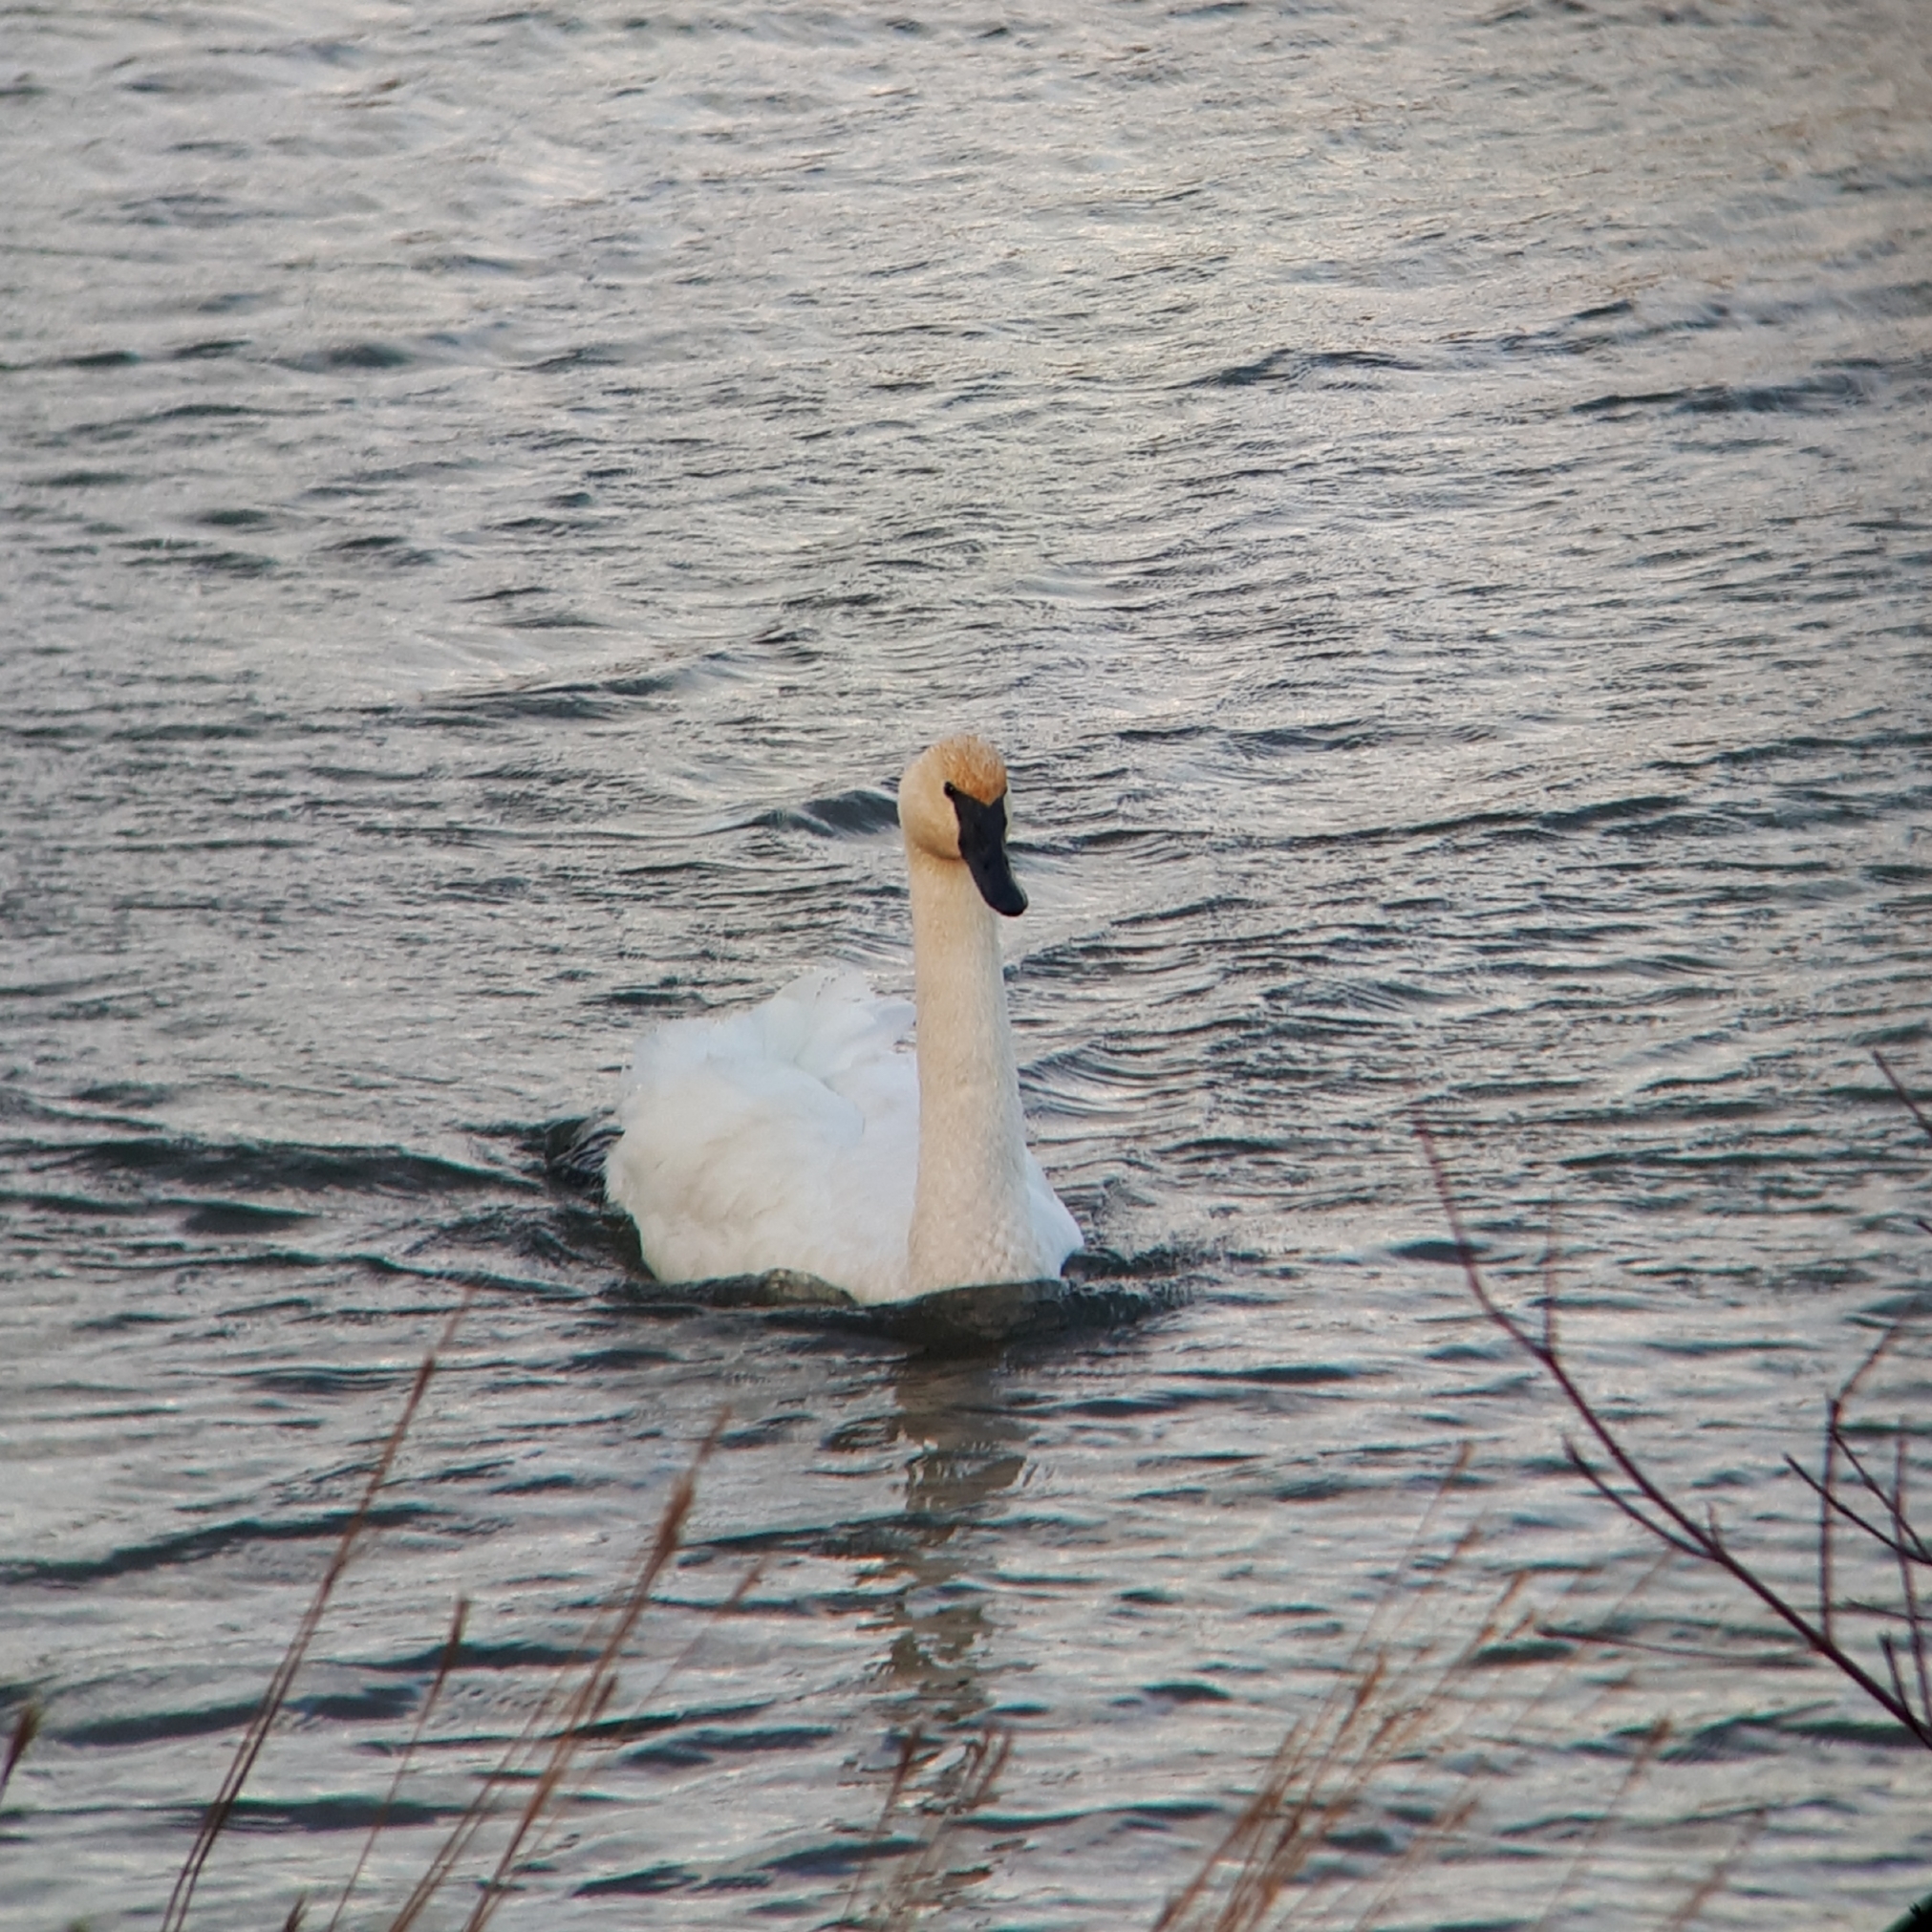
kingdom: Animalia
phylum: Chordata
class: Aves
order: Anseriformes
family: Anatidae
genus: Cygnus
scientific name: Cygnus buccinator
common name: Trumpeter swan
